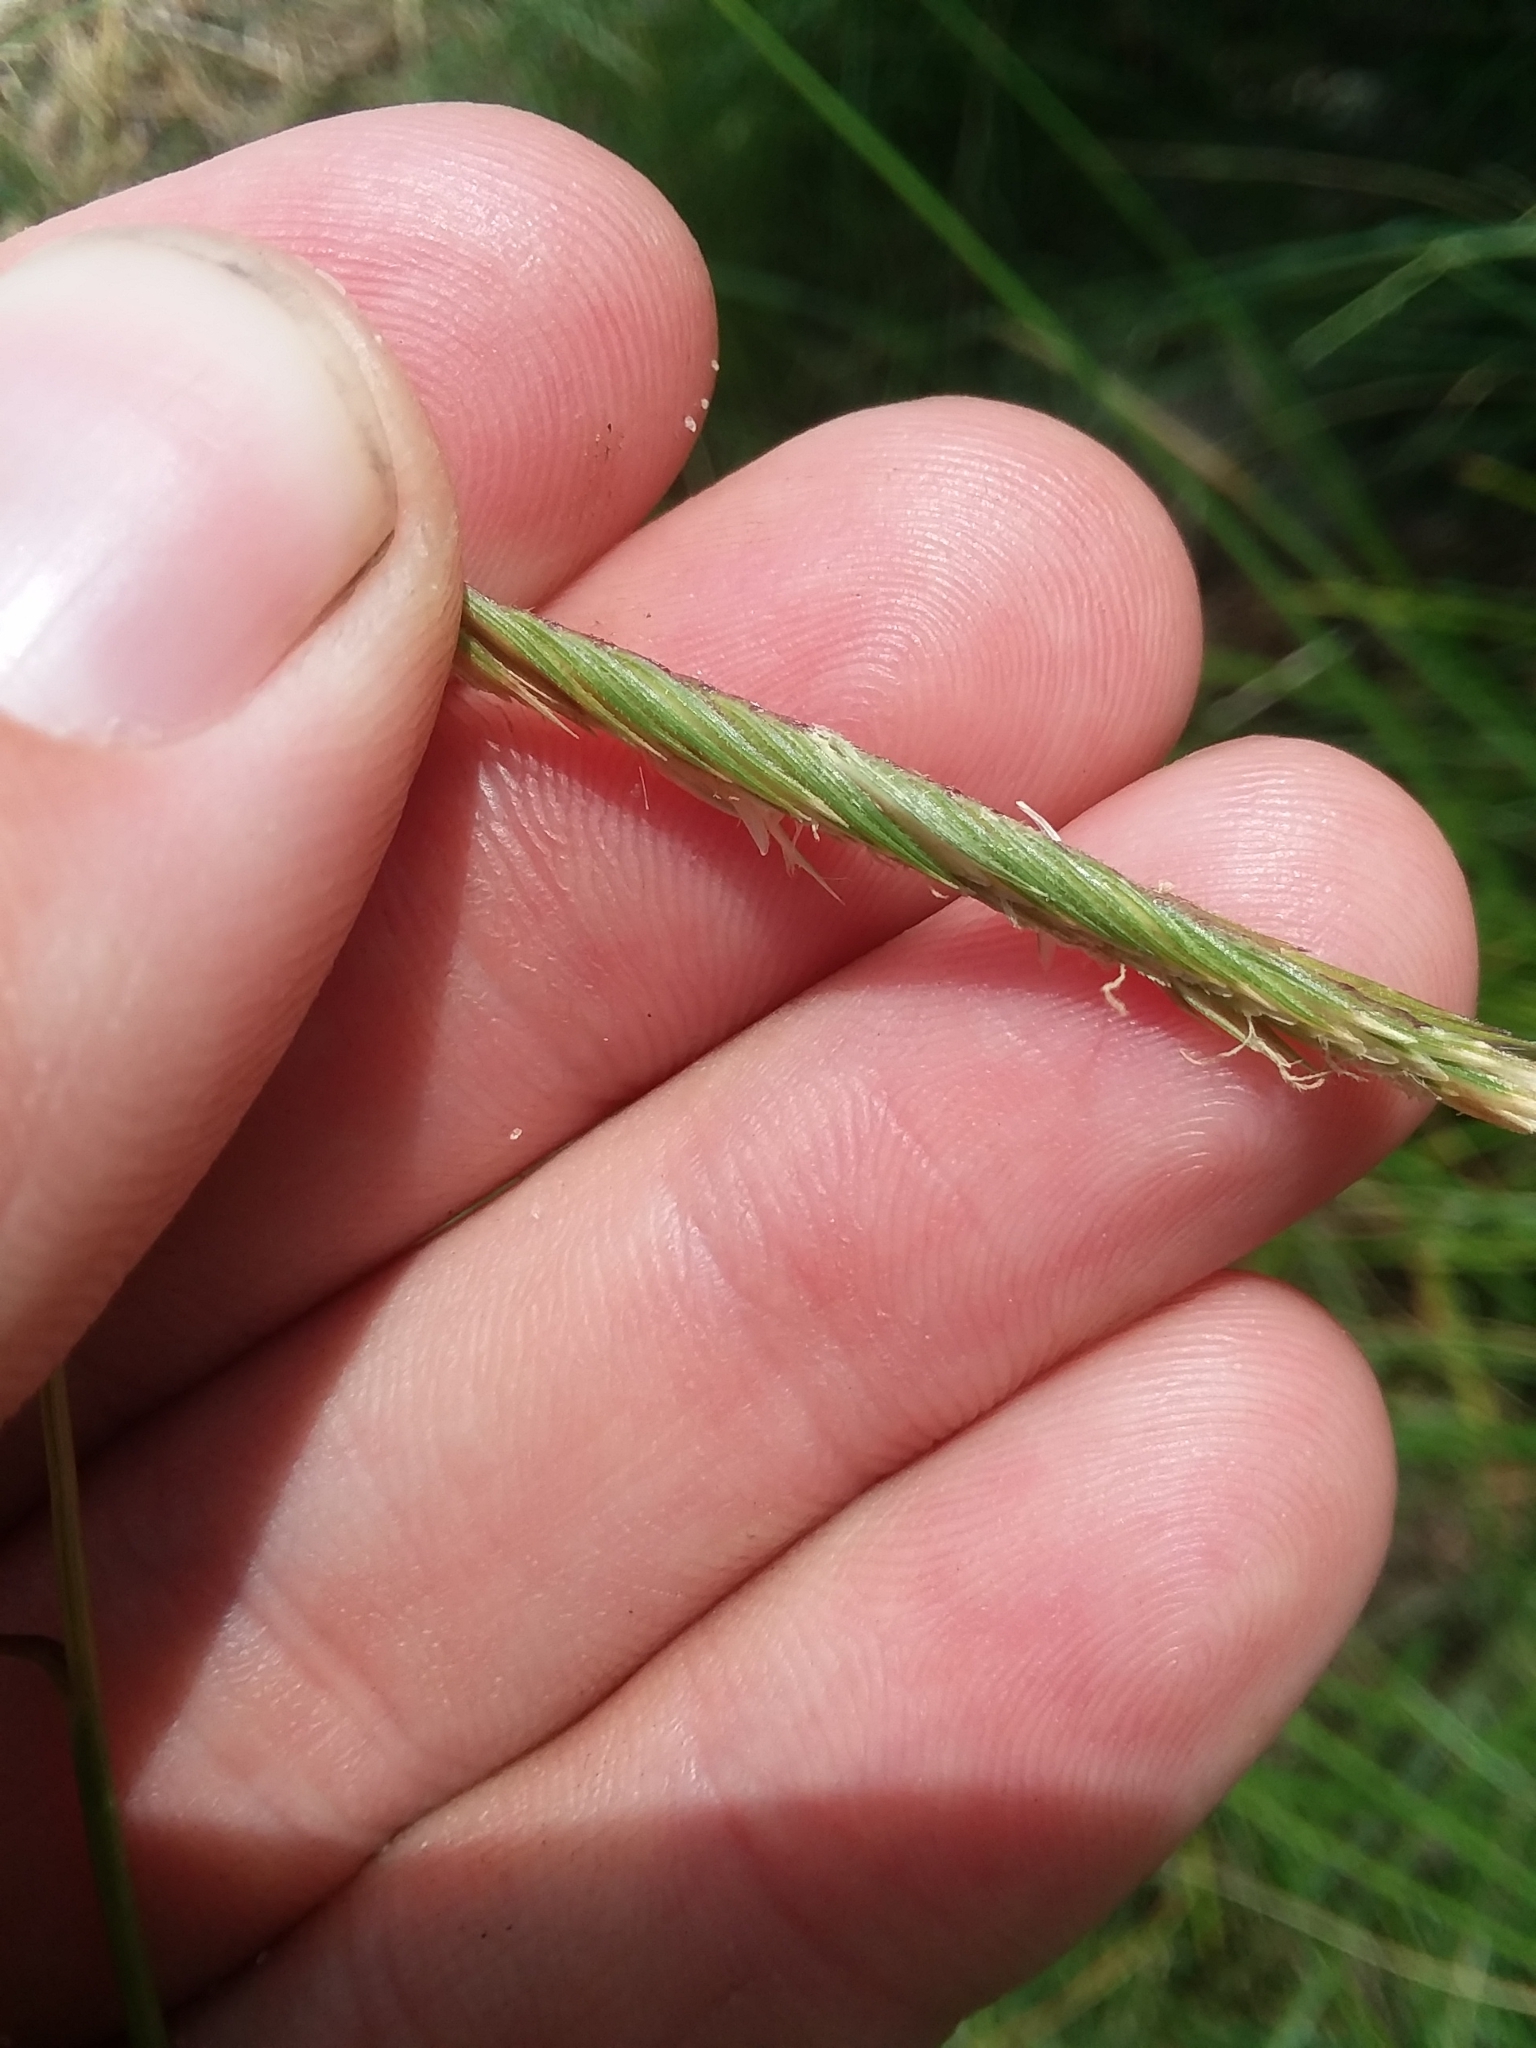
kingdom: Plantae
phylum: Tracheophyta
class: Liliopsida
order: Poales
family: Poaceae
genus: Sporobolus
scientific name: Sporobolus pumilus
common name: Highwater grass
